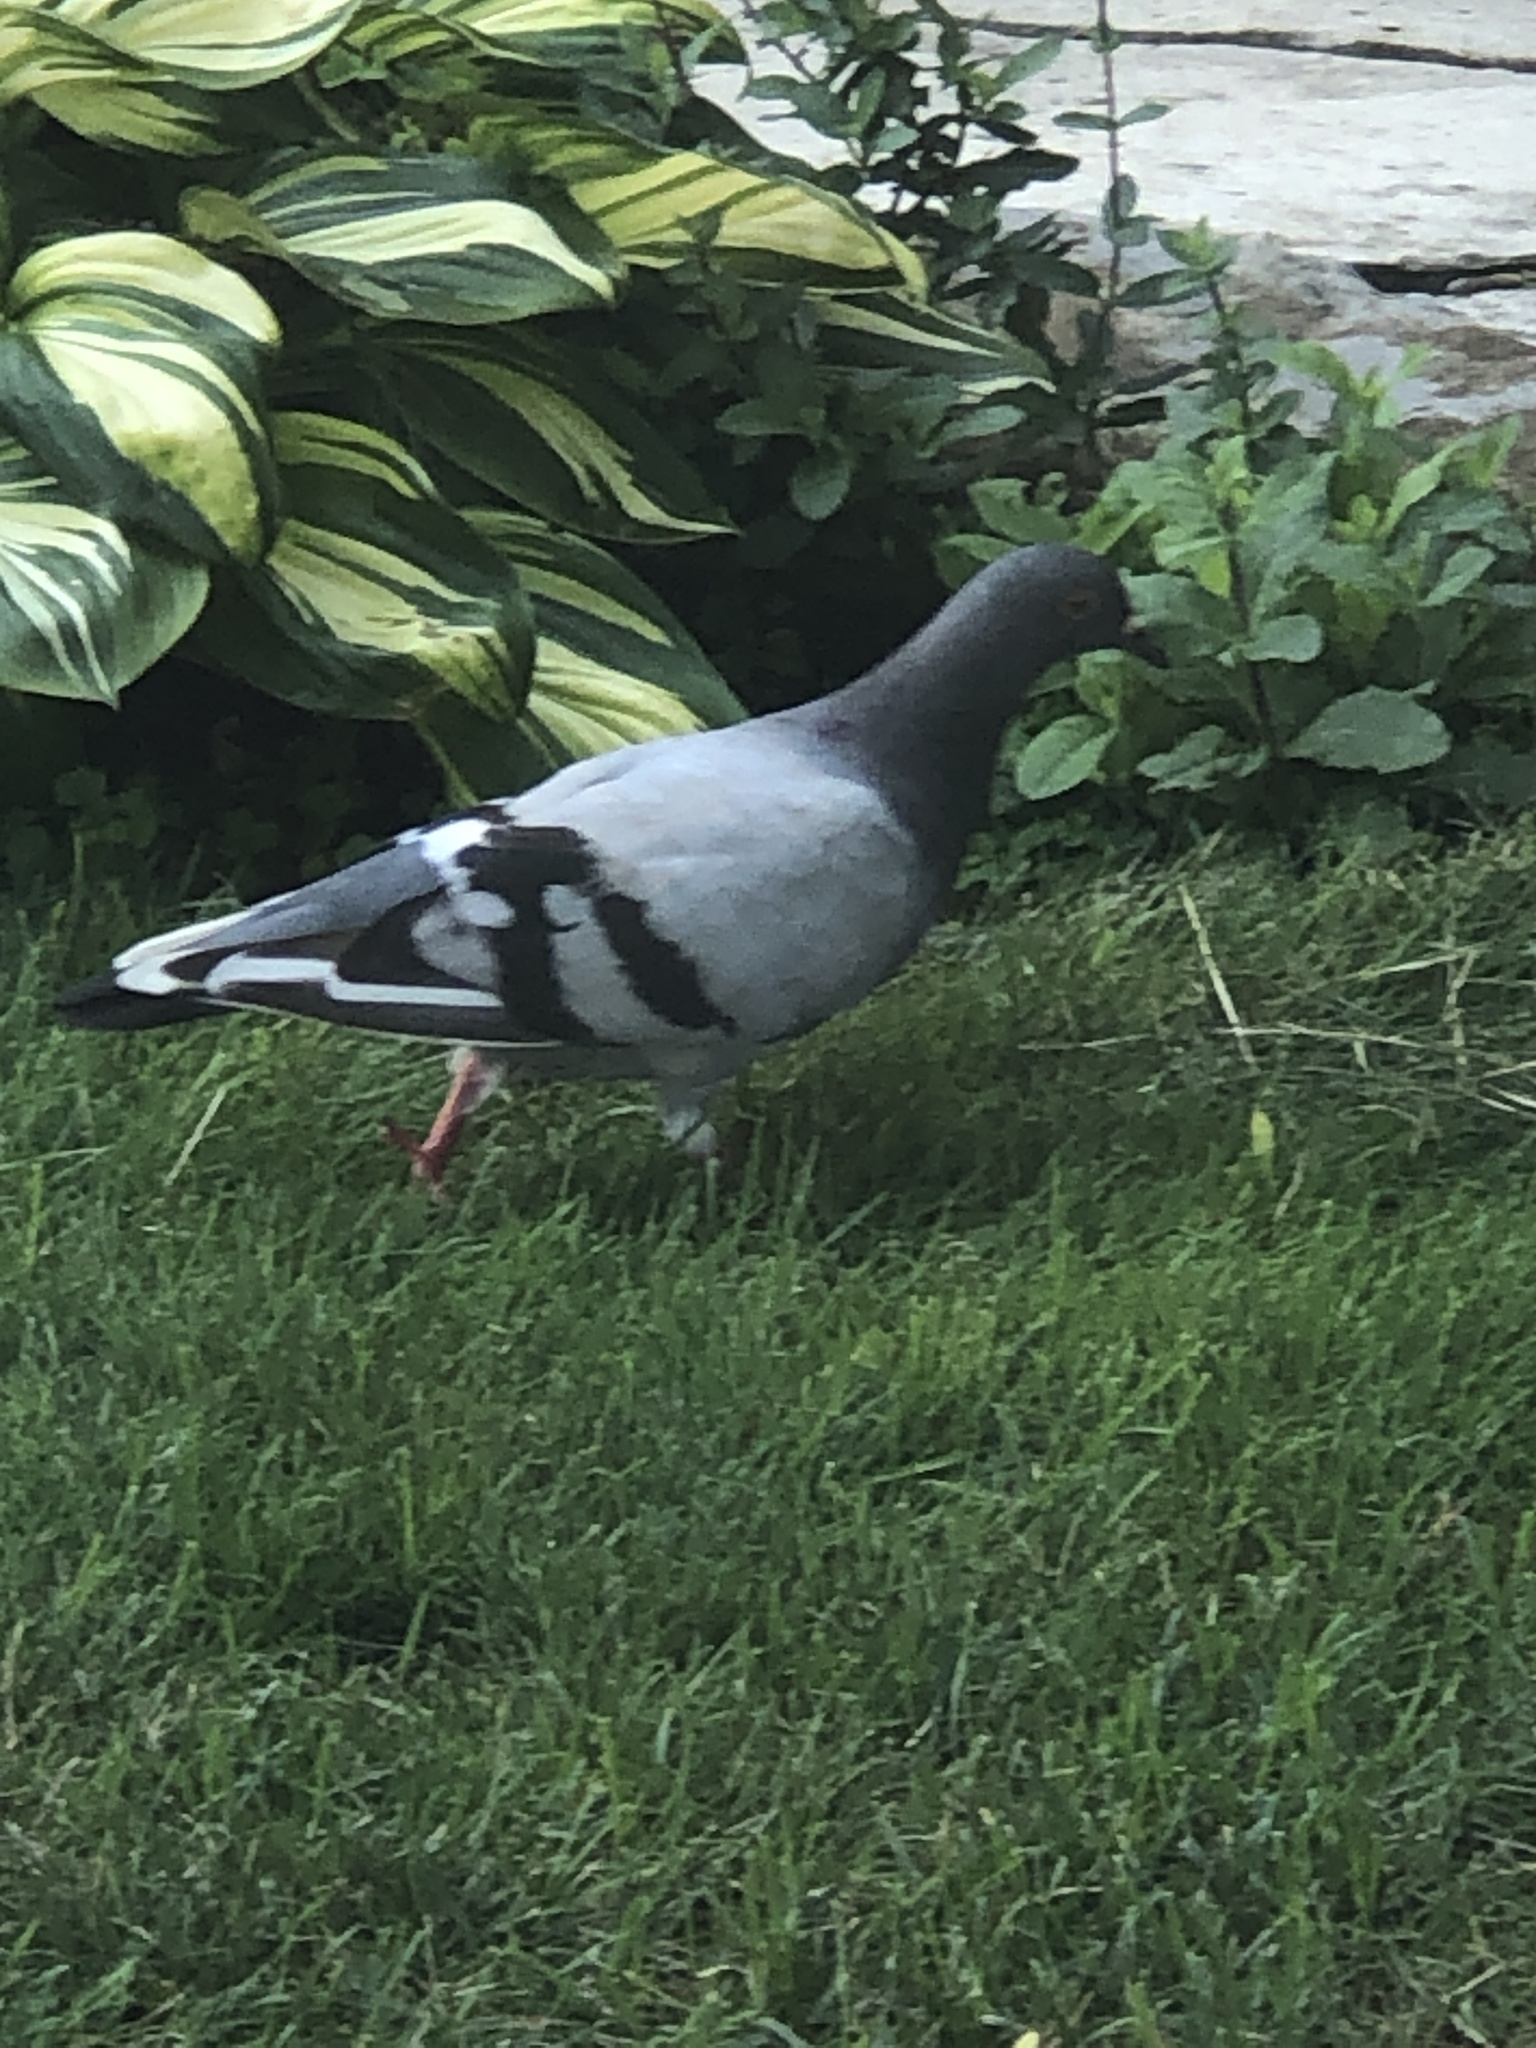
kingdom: Animalia
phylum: Chordata
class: Aves
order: Columbiformes
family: Columbidae
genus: Columba
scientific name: Columba livia
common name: Rock pigeon
